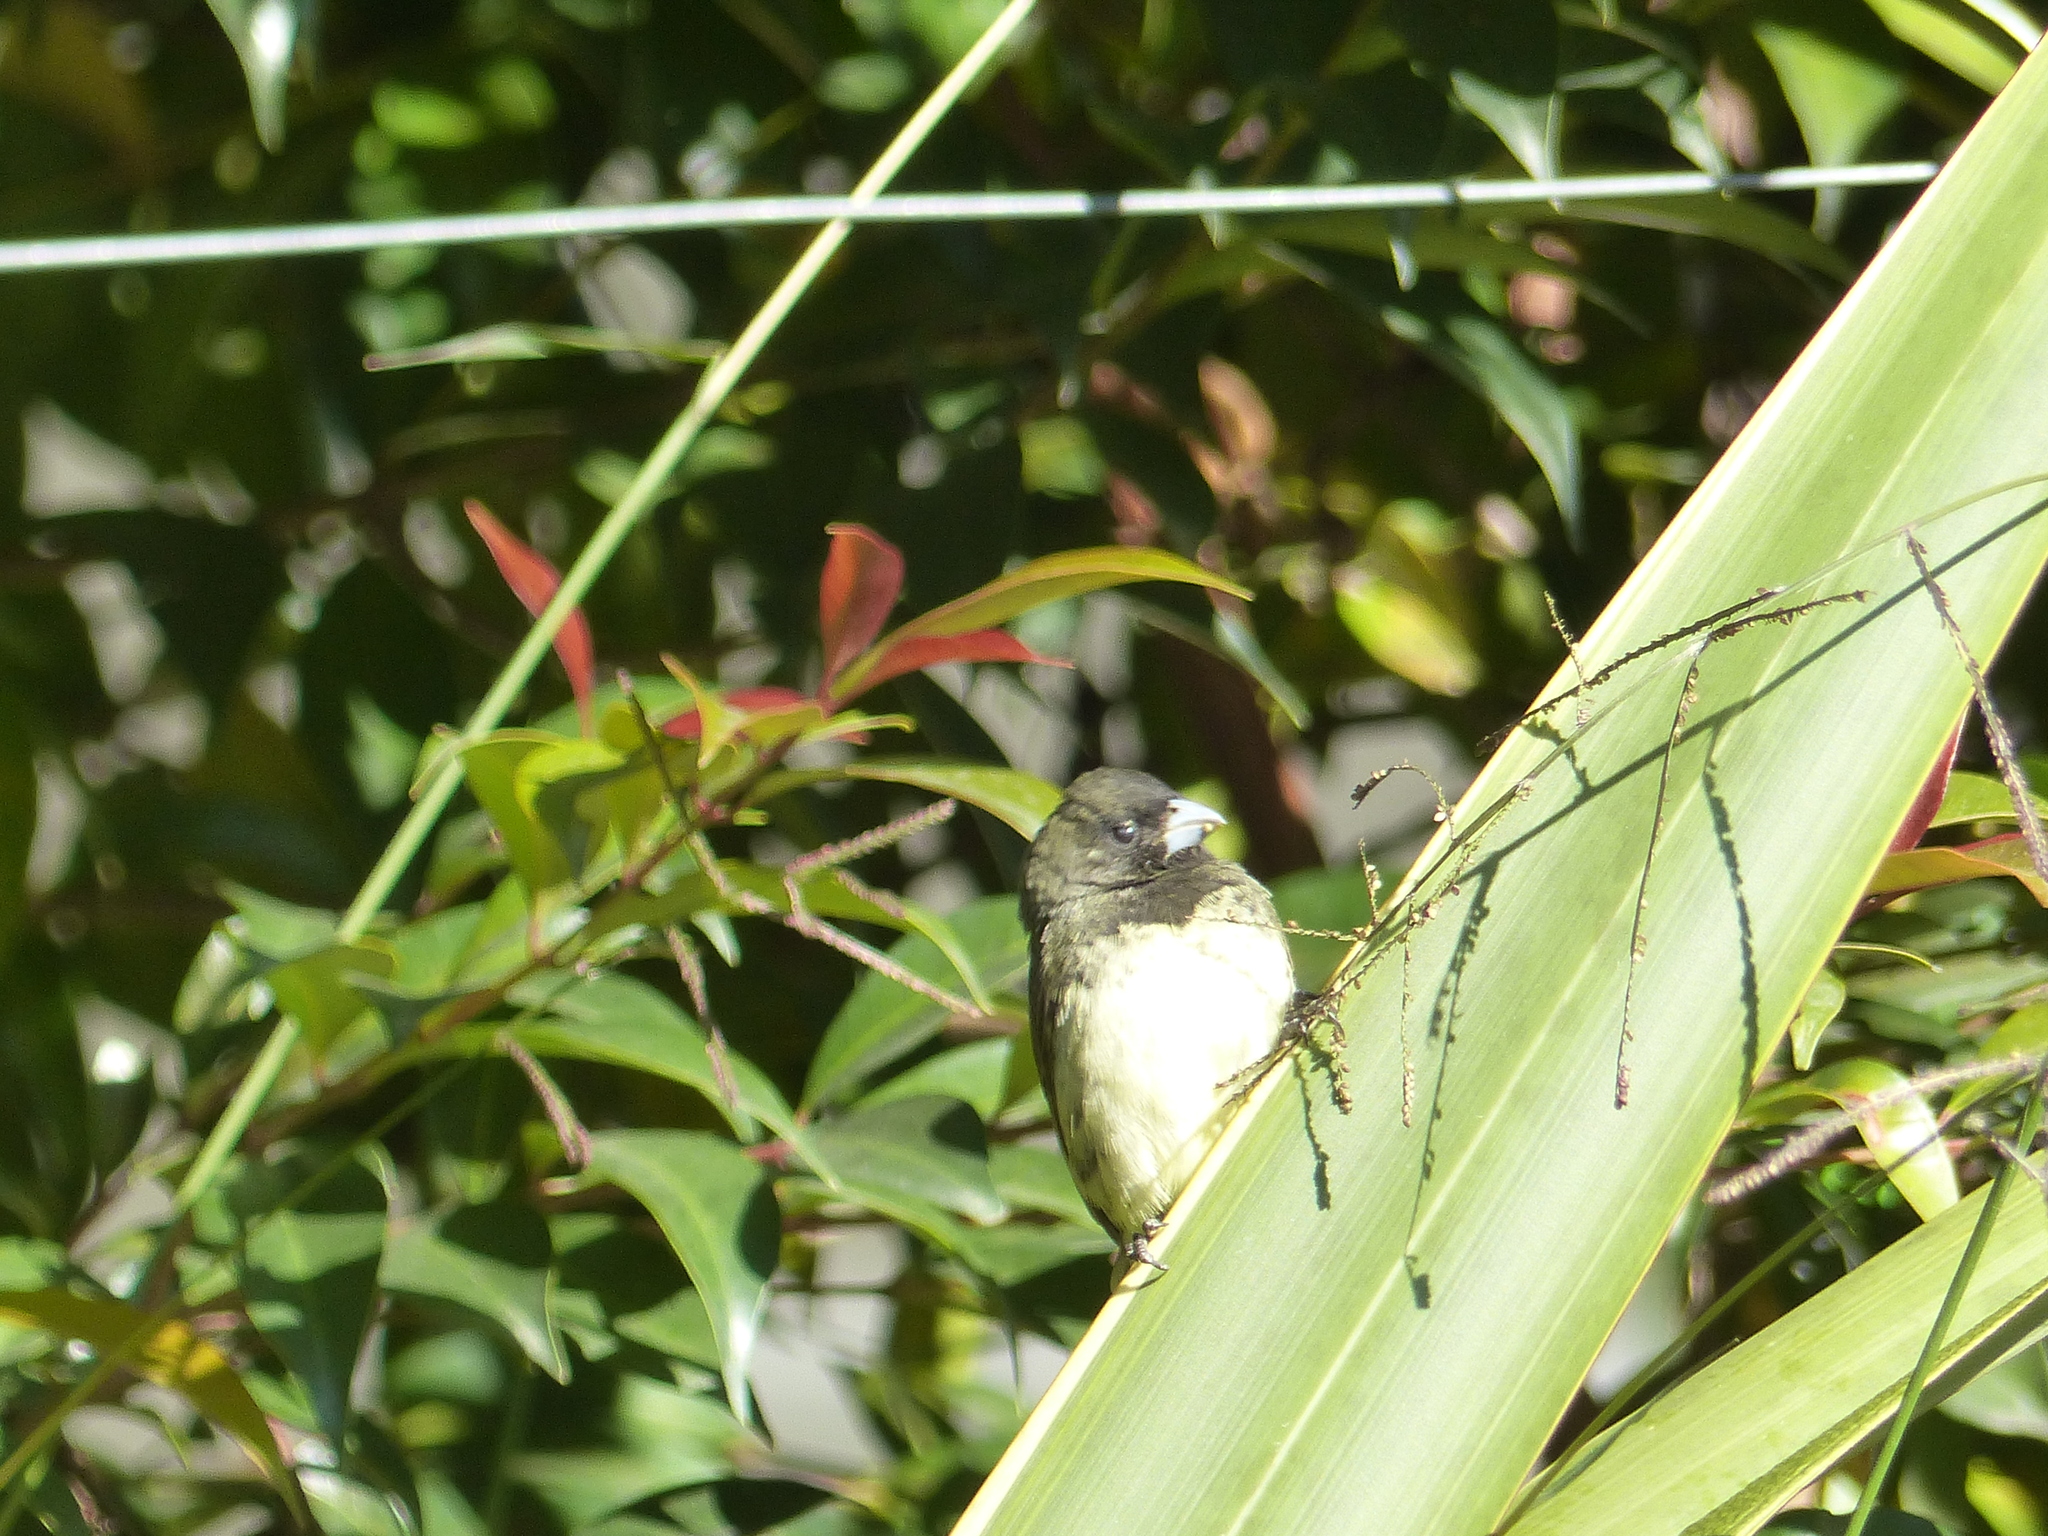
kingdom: Animalia
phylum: Chordata
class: Aves
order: Passeriformes
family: Thraupidae
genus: Sporophila
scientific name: Sporophila nigricollis
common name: Yellow-bellied seedeater
